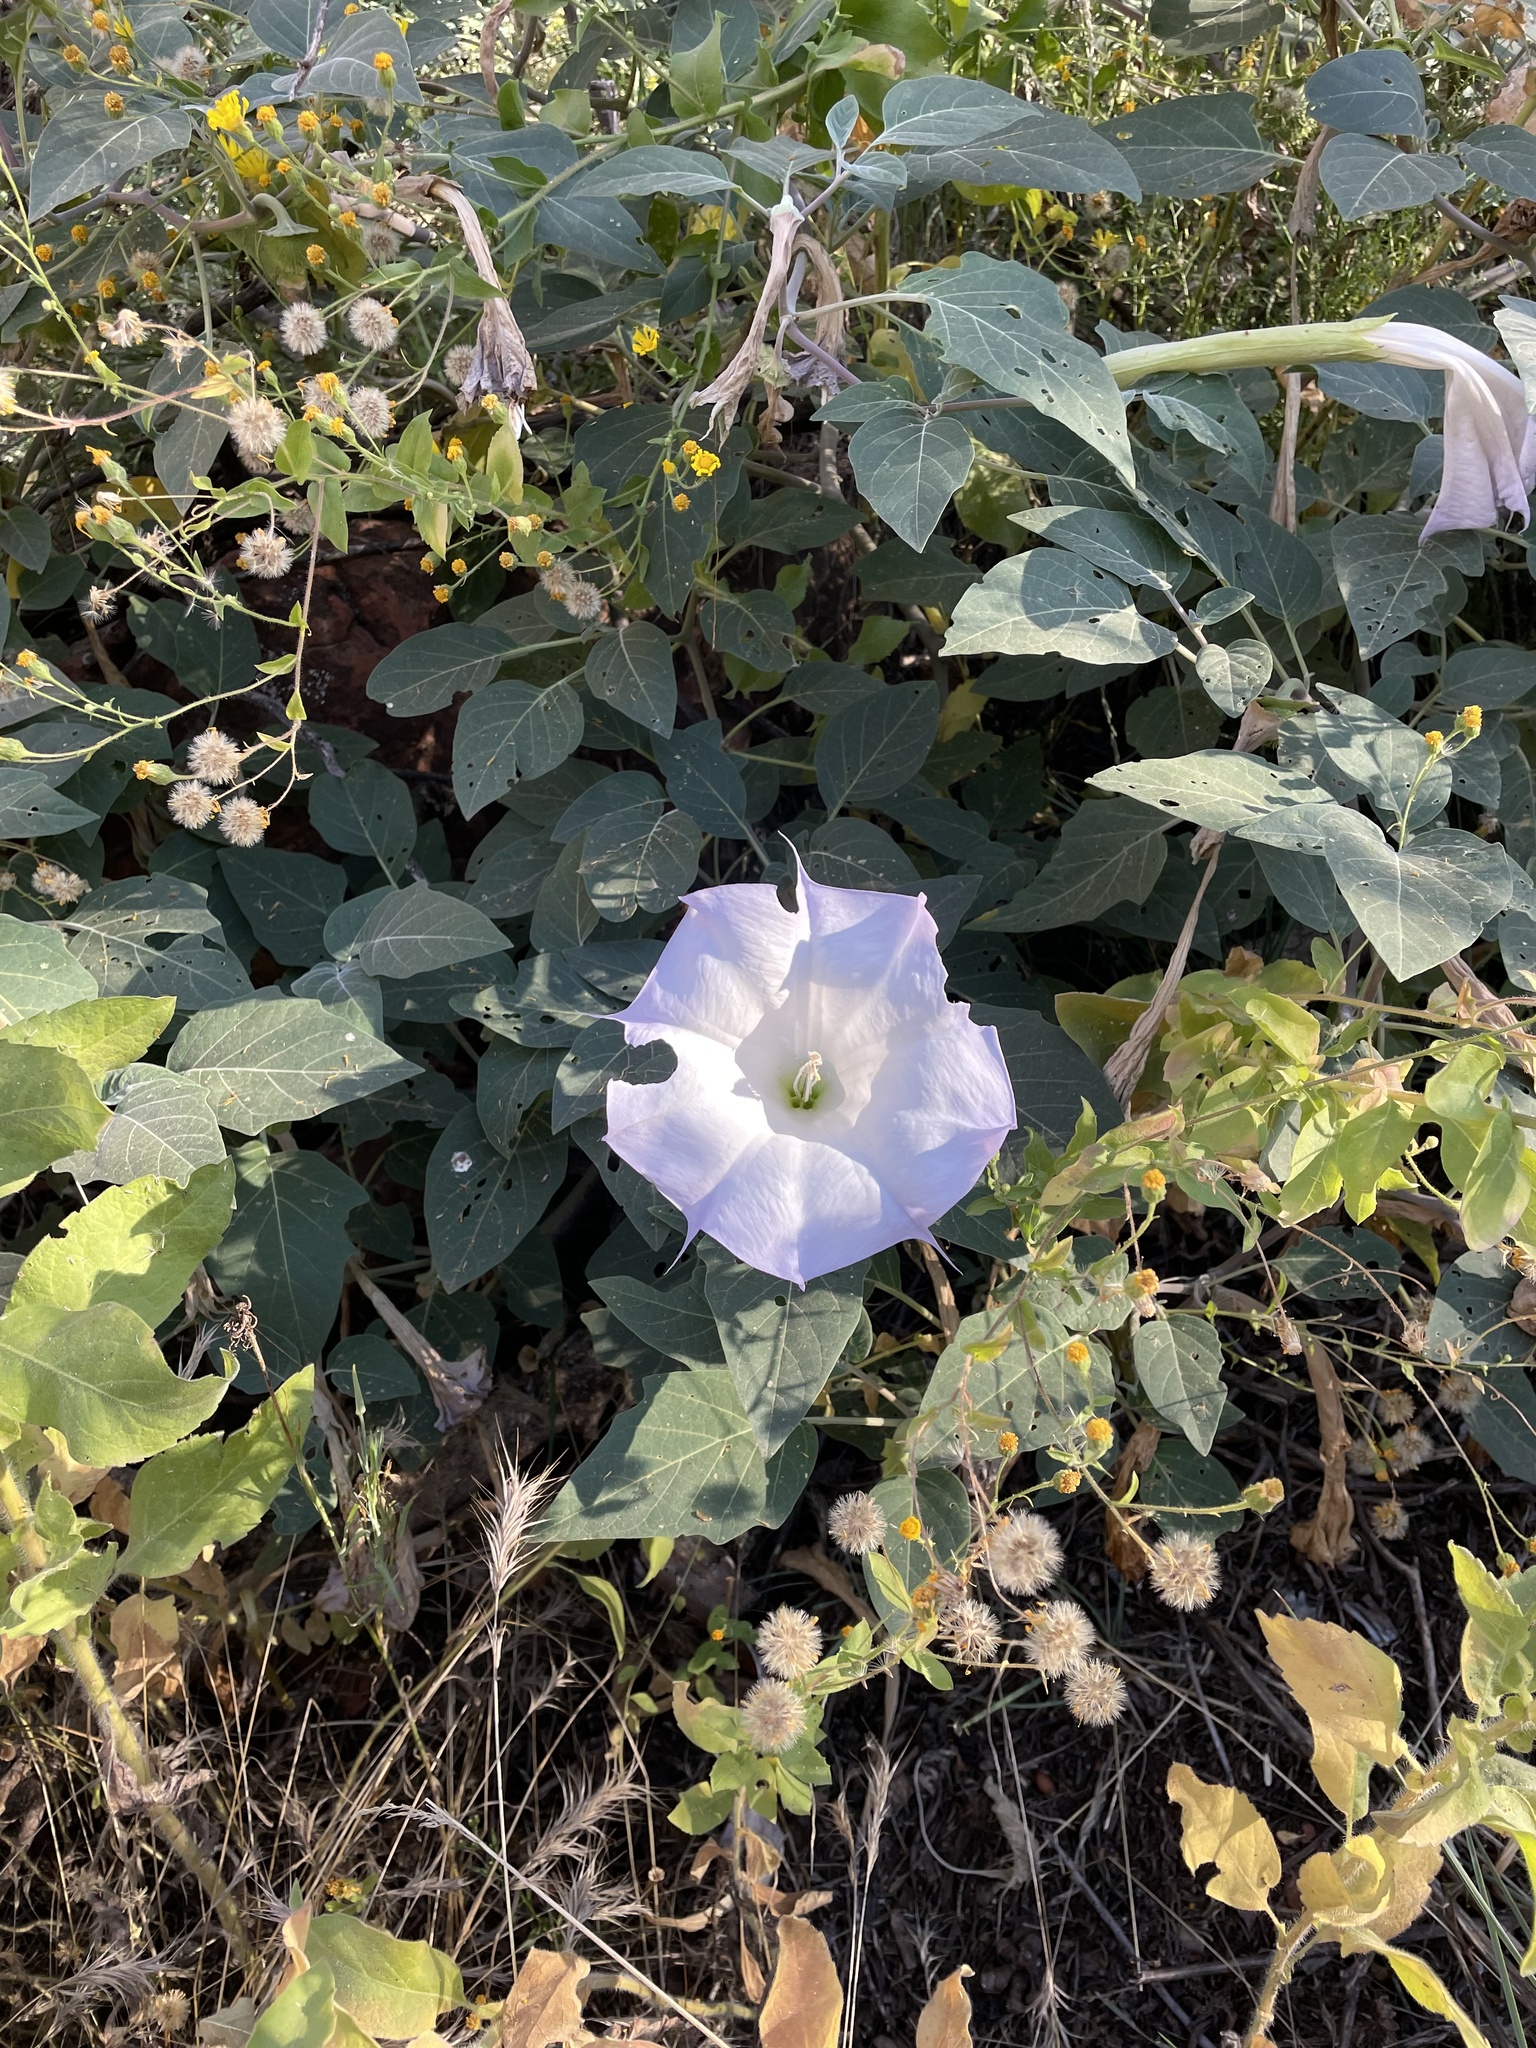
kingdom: Plantae
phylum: Tracheophyta
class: Magnoliopsida
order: Solanales
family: Solanaceae
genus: Datura
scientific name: Datura wrightii
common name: Sacred thorn-apple
